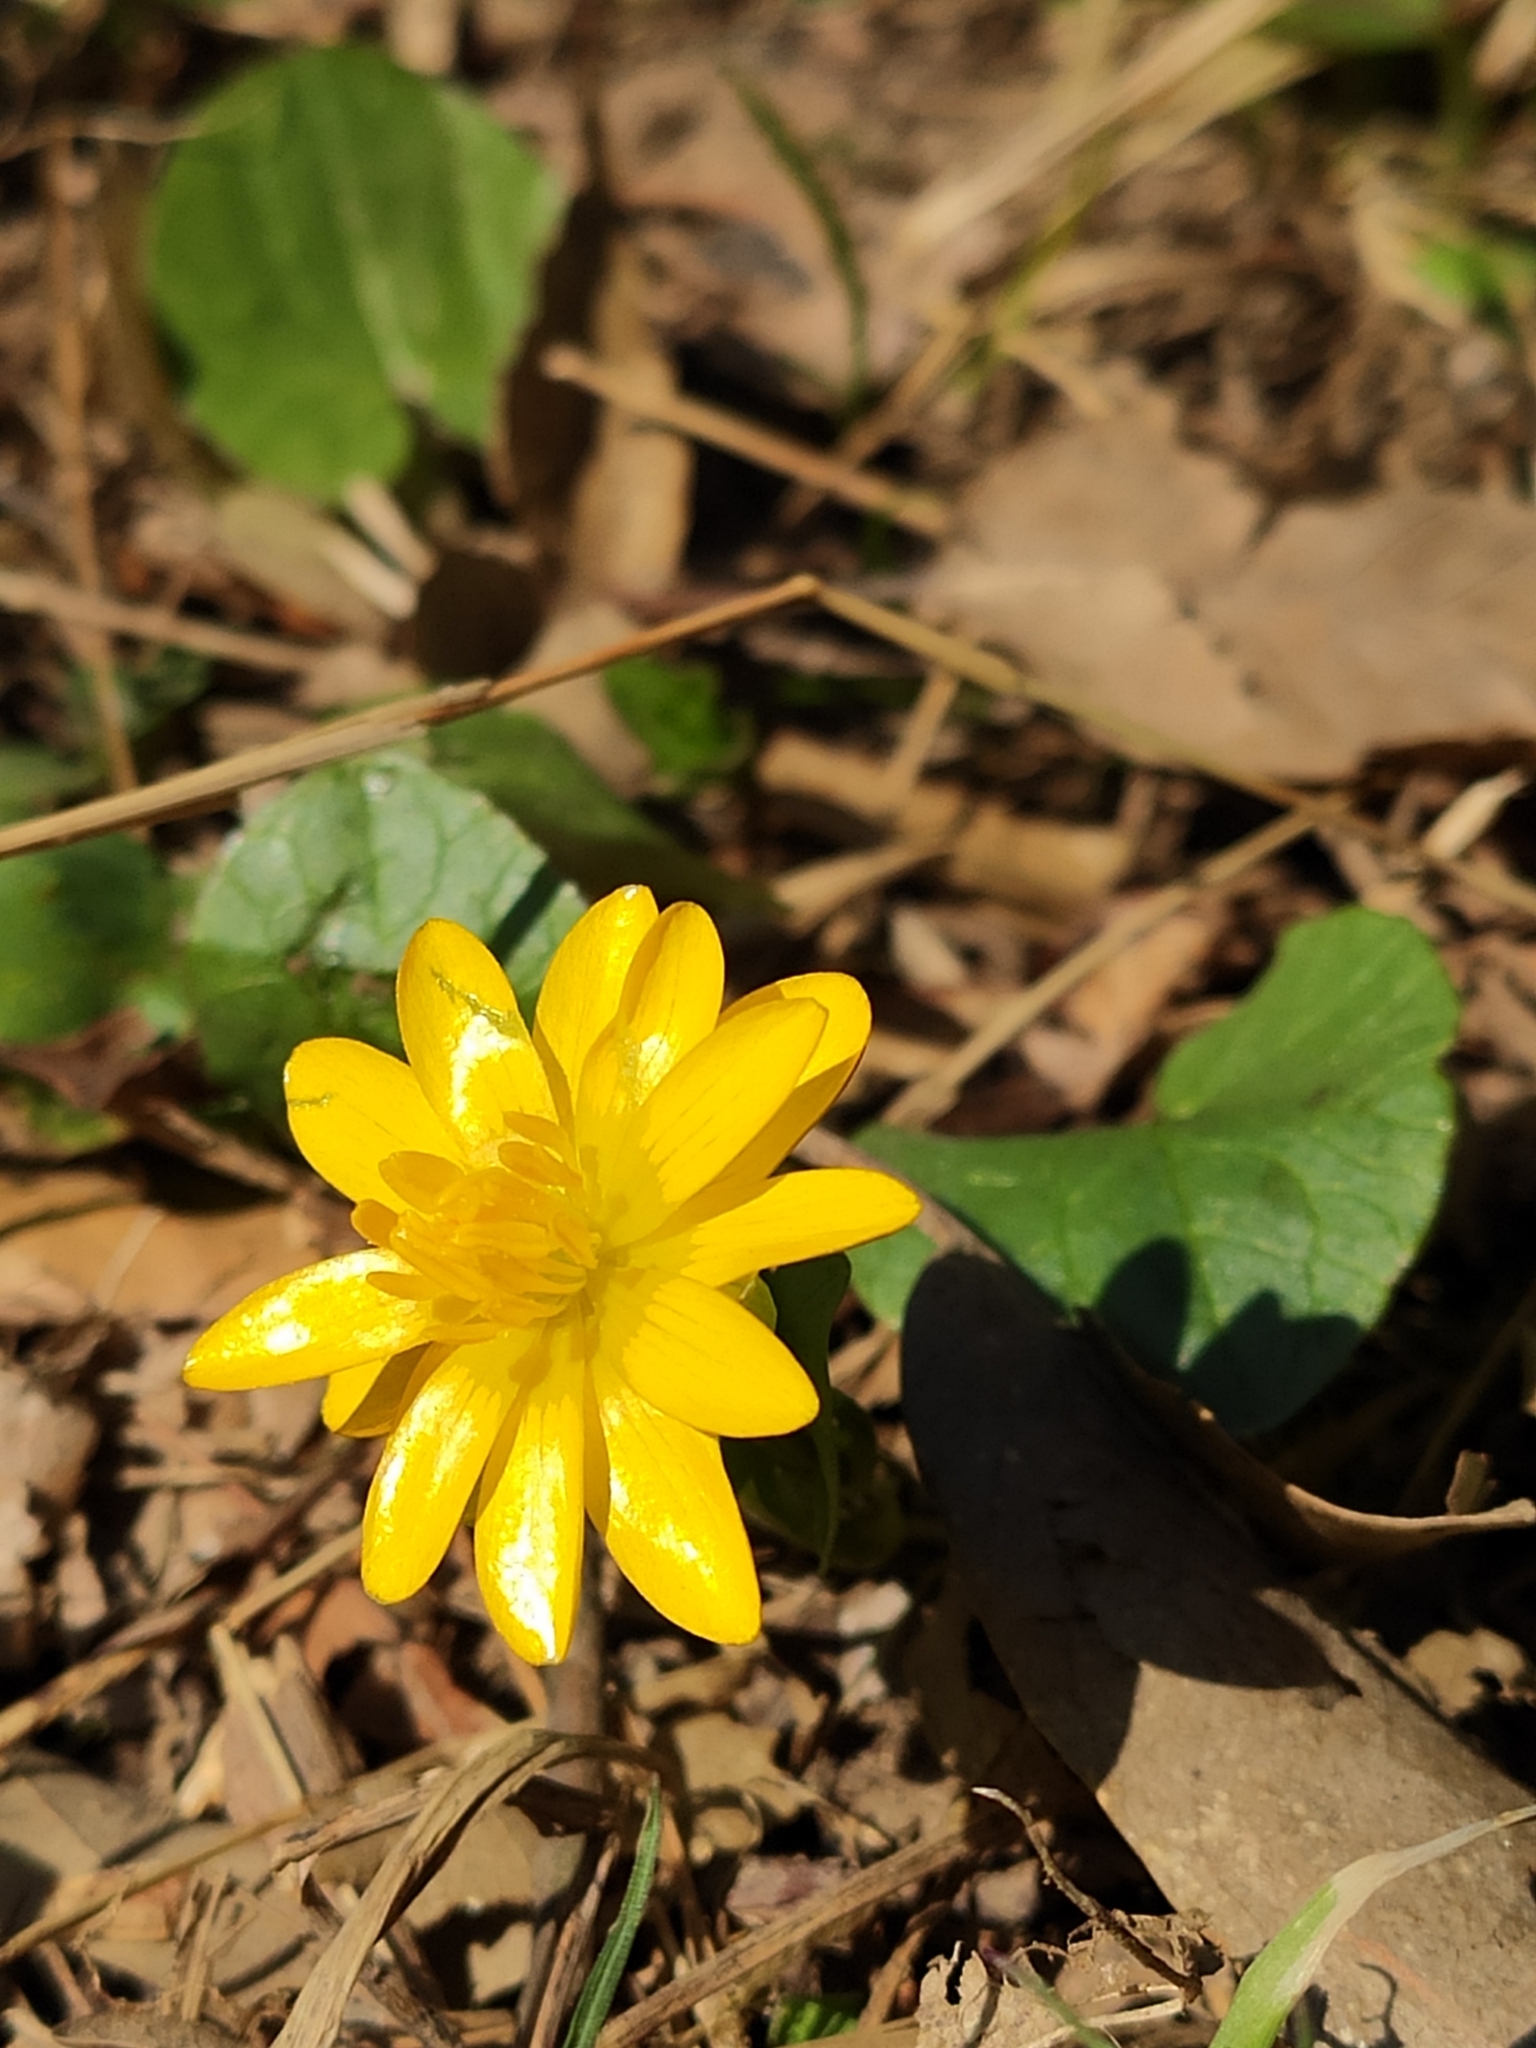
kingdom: Plantae
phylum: Tracheophyta
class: Magnoliopsida
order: Ranunculales
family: Ranunculaceae
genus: Ficaria
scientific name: Ficaria verna
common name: Lesser celandine
